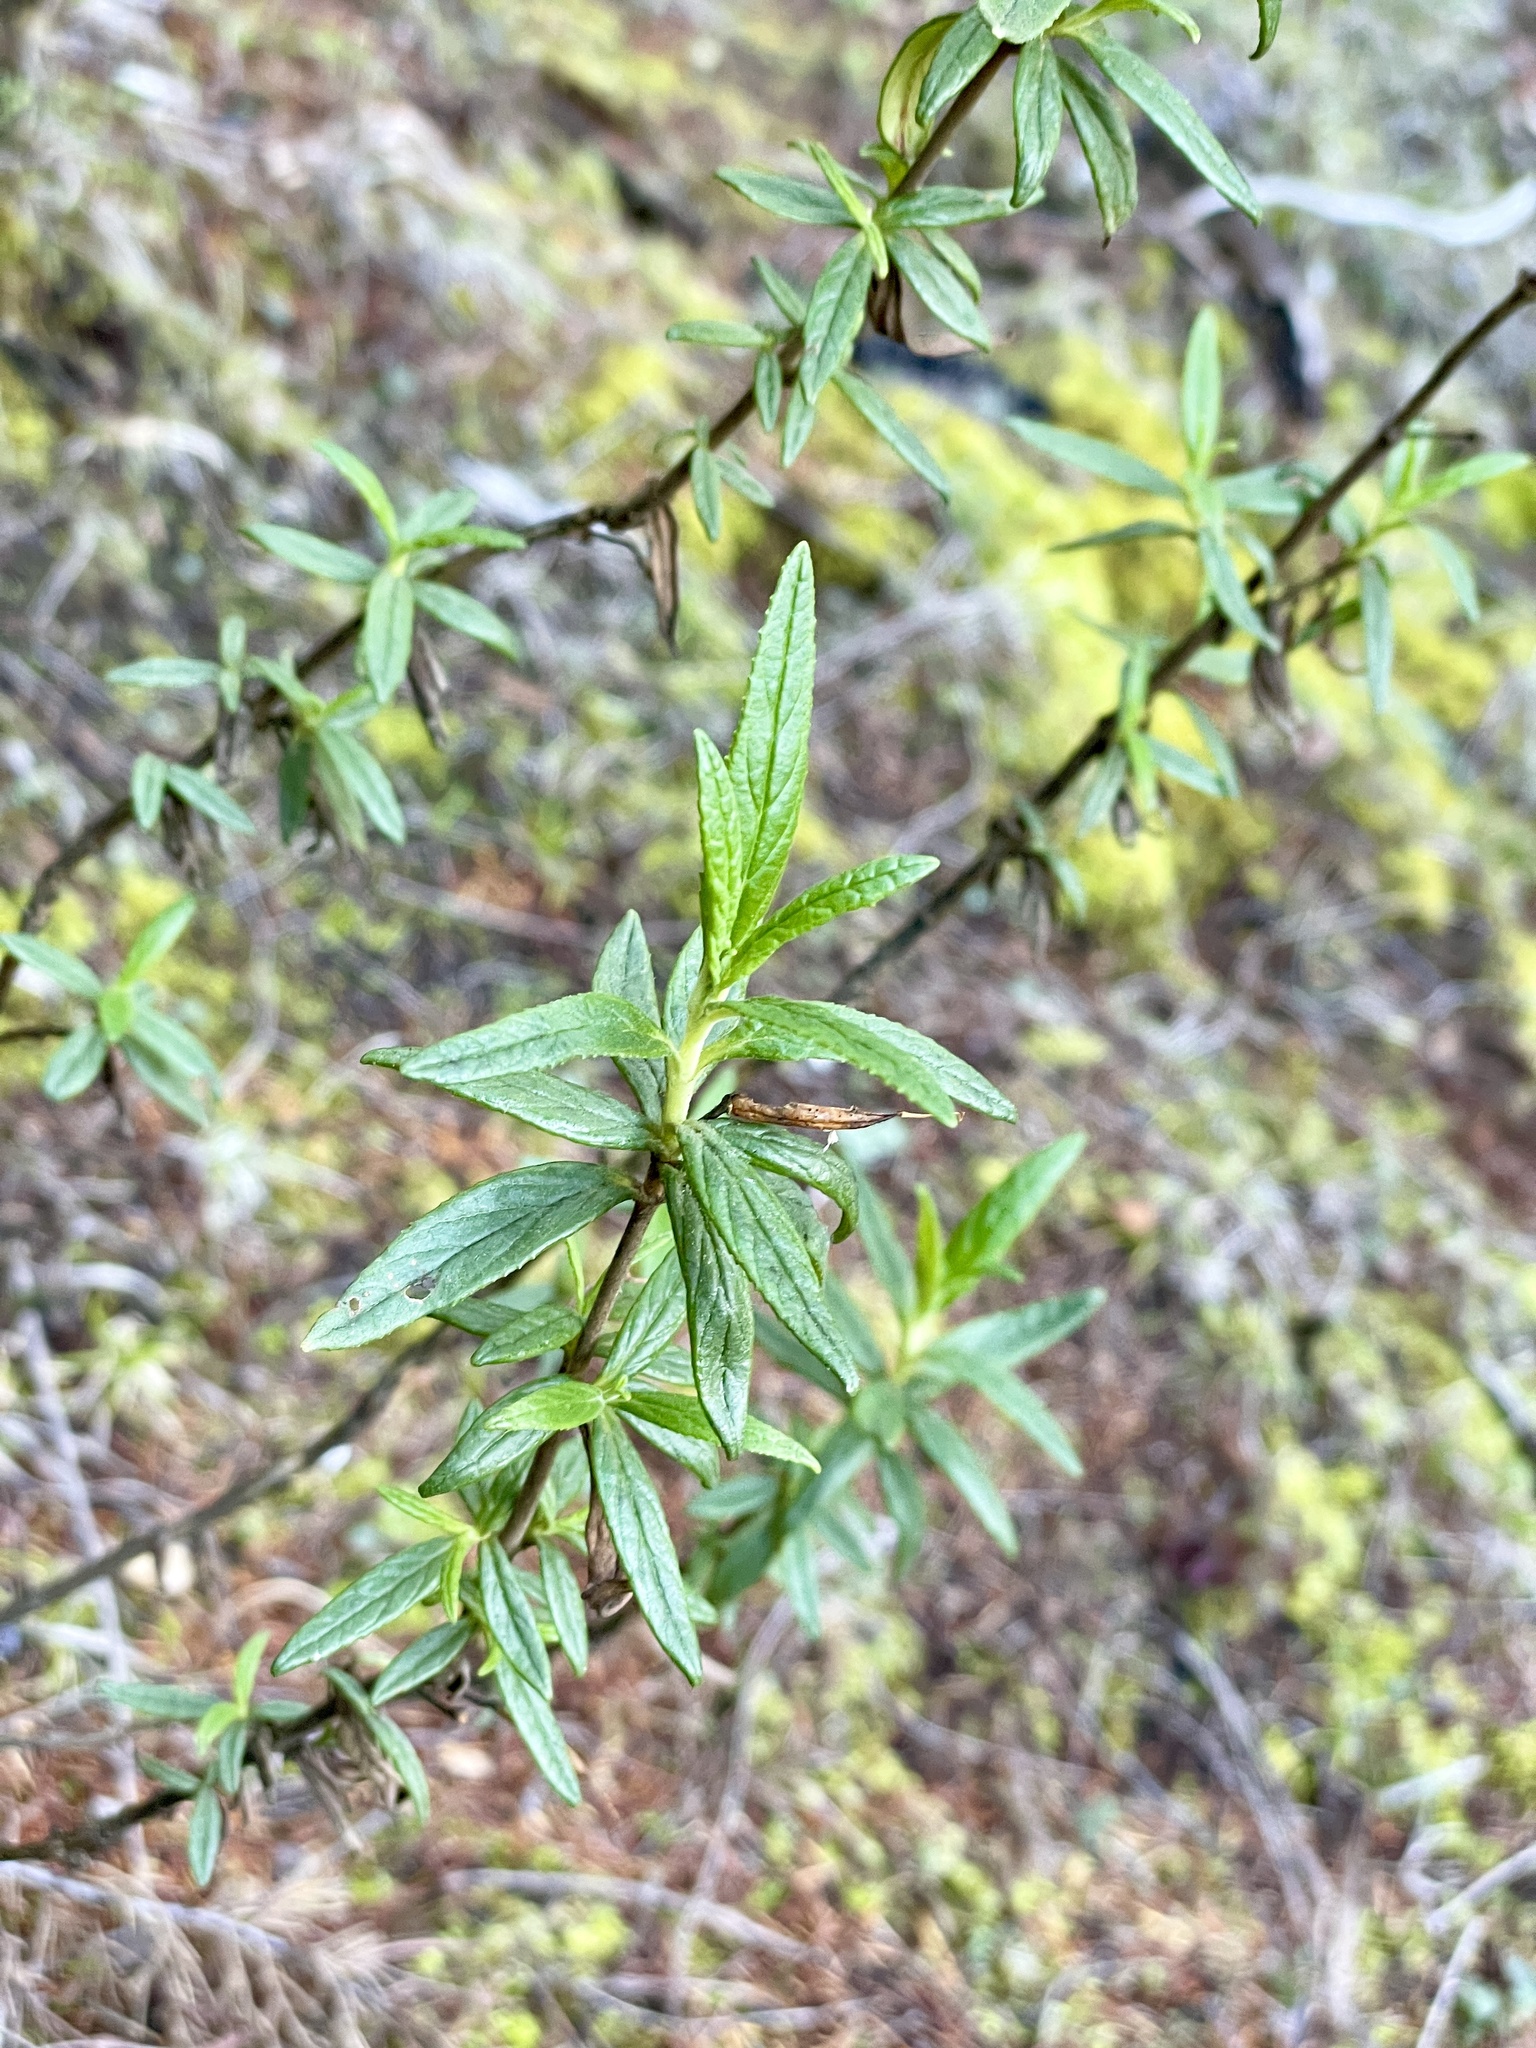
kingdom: Plantae
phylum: Tracheophyta
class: Magnoliopsida
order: Lamiales
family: Phrymaceae
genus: Diplacus
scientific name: Diplacus aurantiacus
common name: Bush monkey-flower
